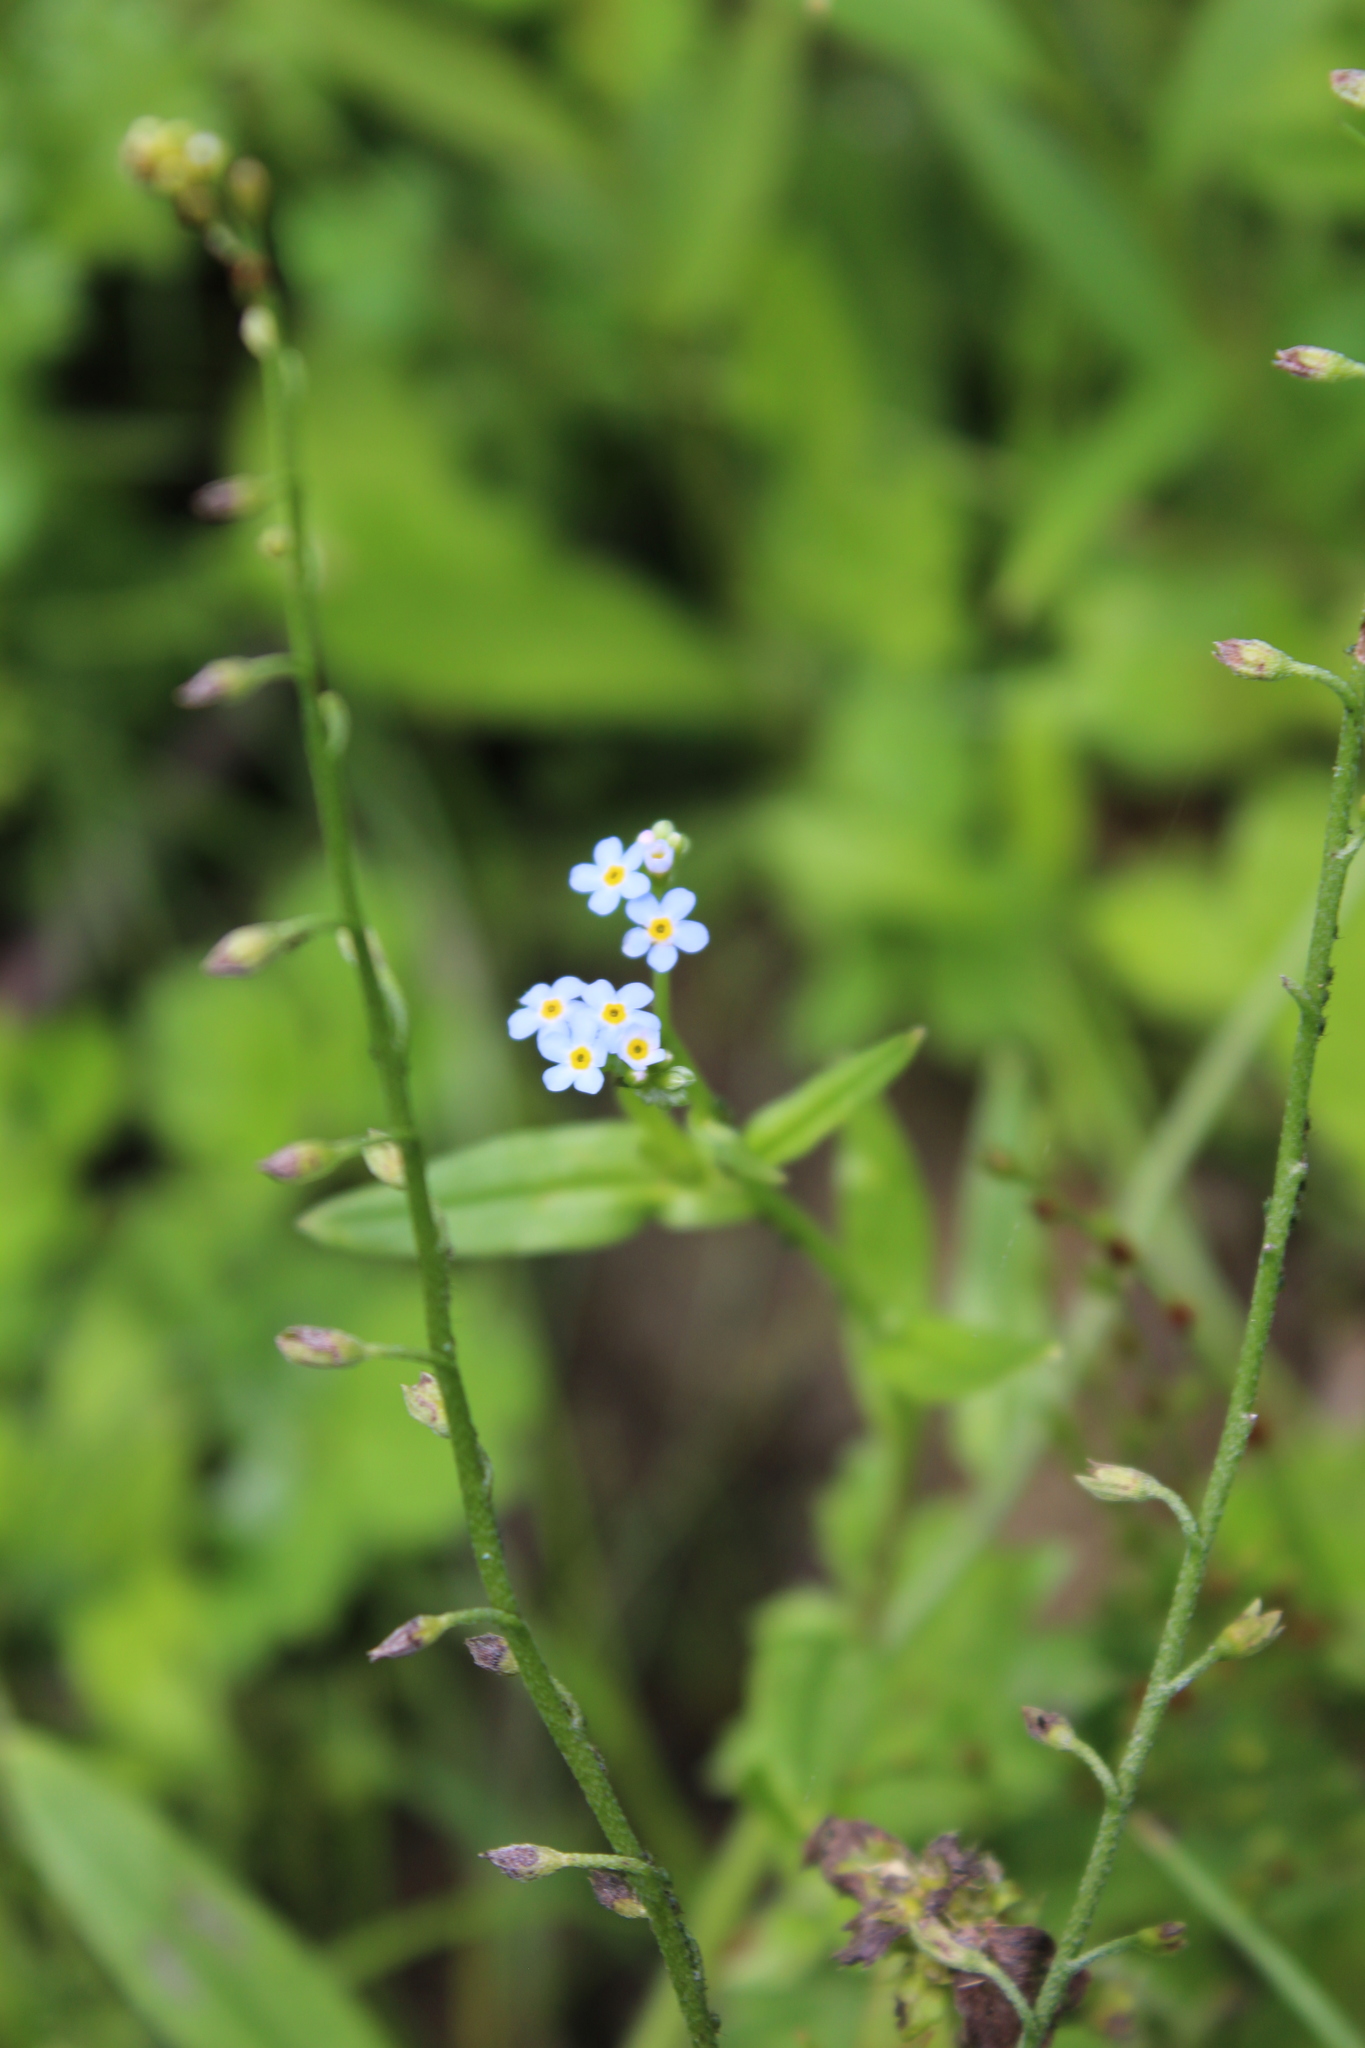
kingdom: Plantae
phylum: Tracheophyta
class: Magnoliopsida
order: Boraginales
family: Boraginaceae
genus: Myosotis
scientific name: Myosotis scorpioides
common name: Water forget-me-not
